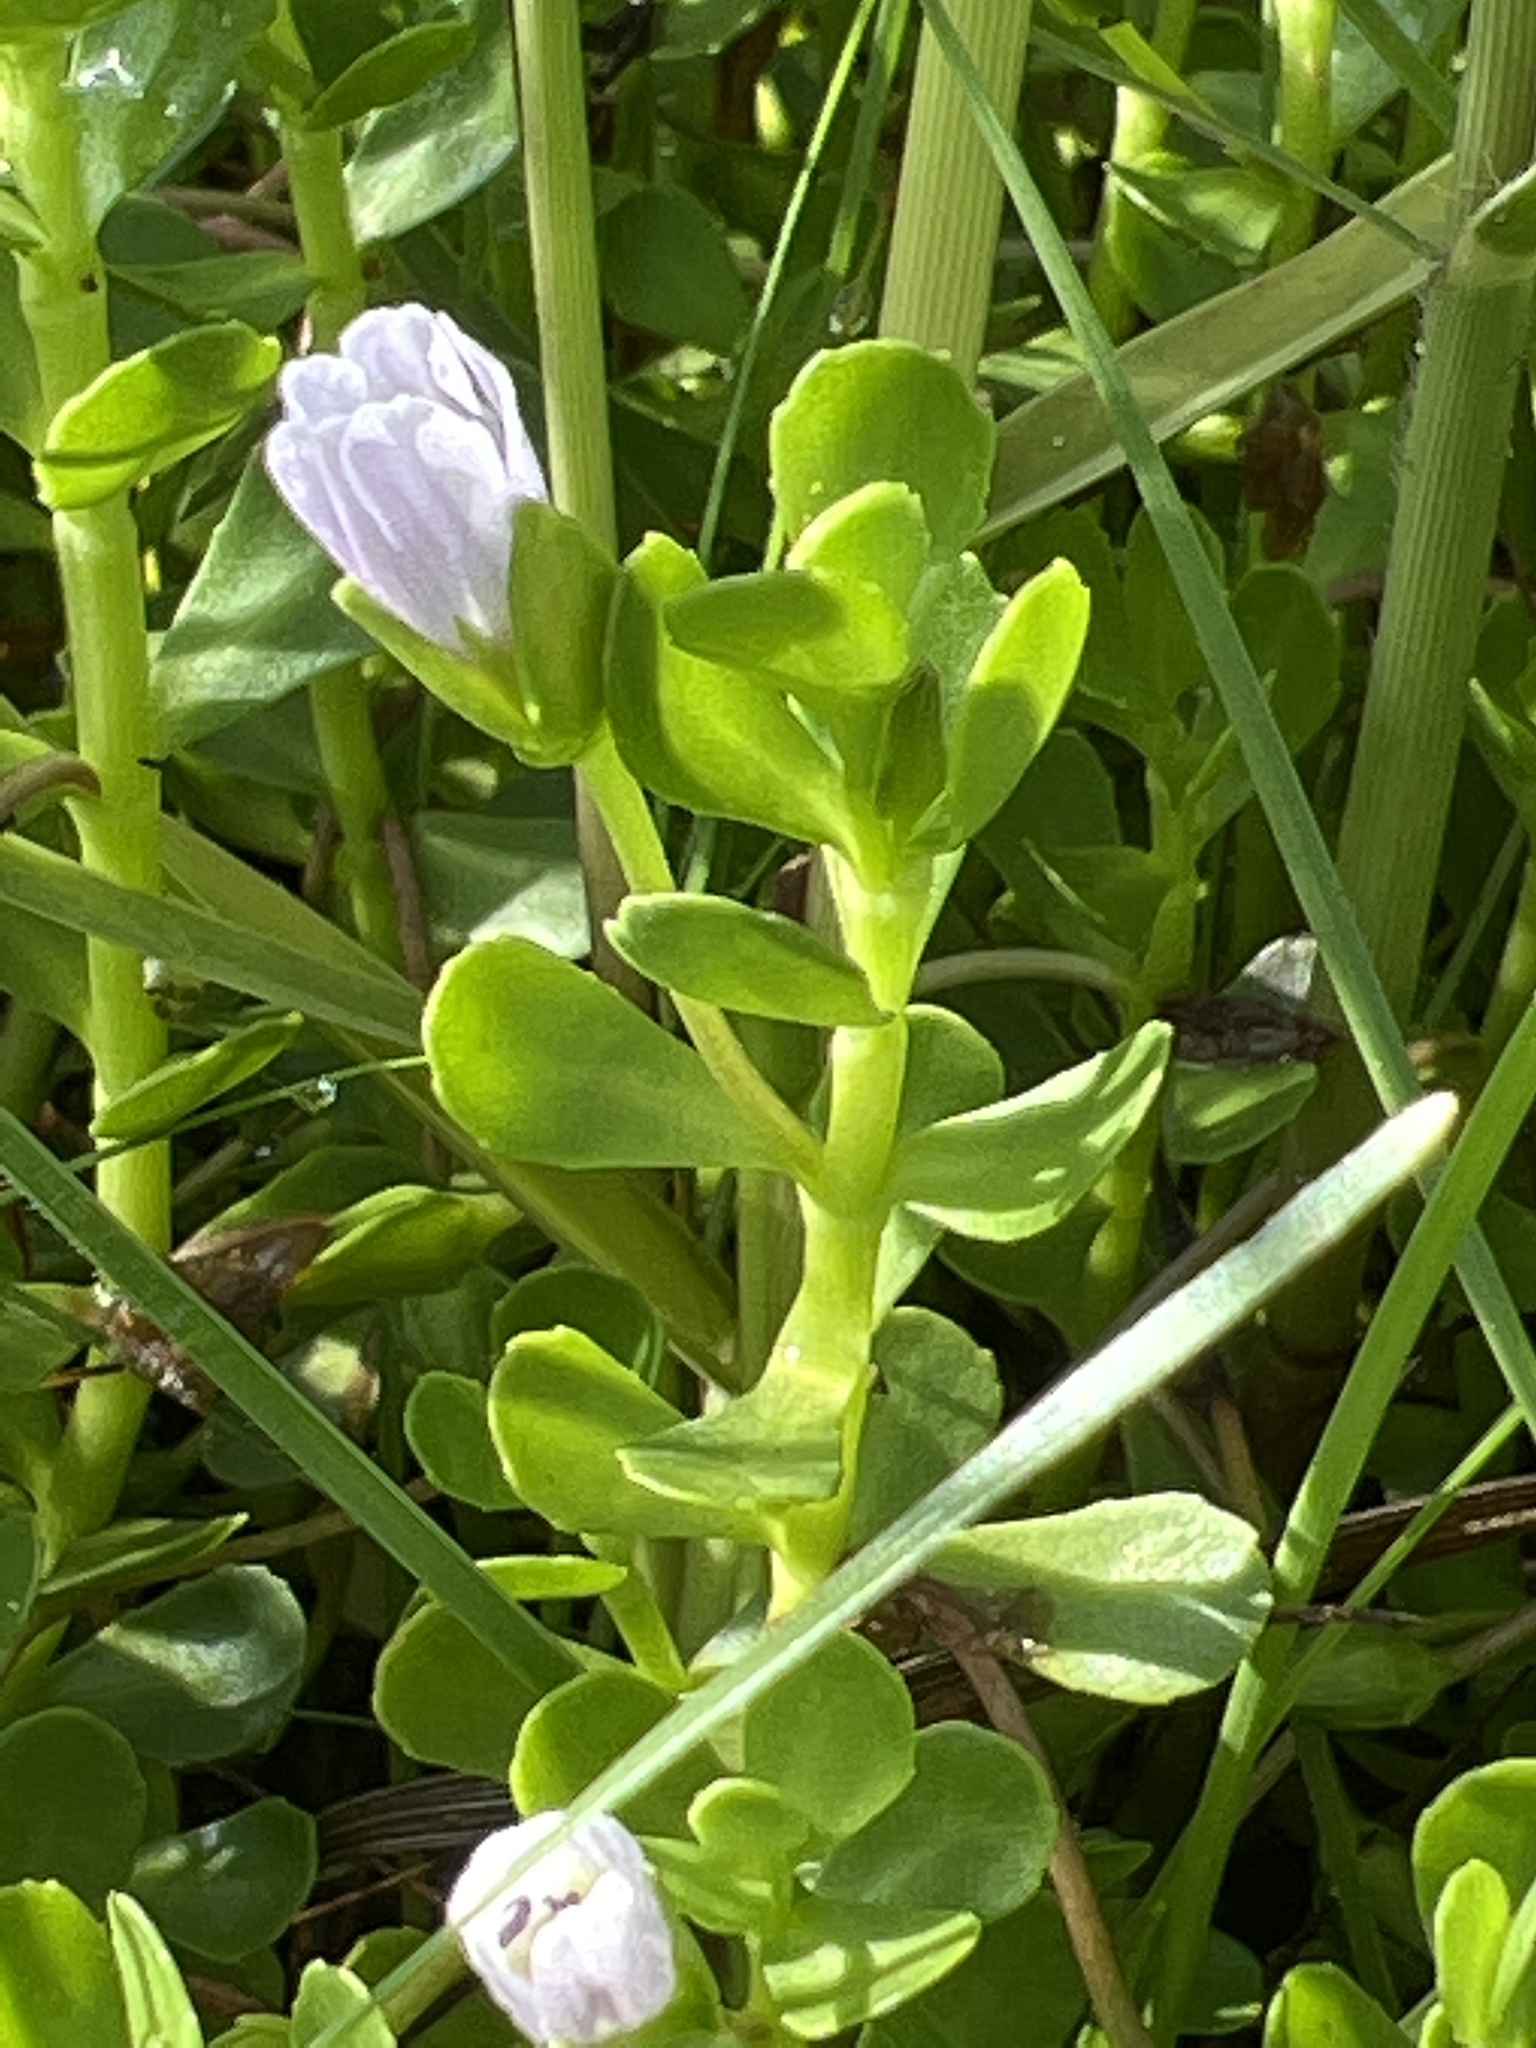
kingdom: Plantae
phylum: Tracheophyta
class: Magnoliopsida
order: Lamiales
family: Plantaginaceae
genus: Bacopa
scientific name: Bacopa monnieri
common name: Indian-pennywort
